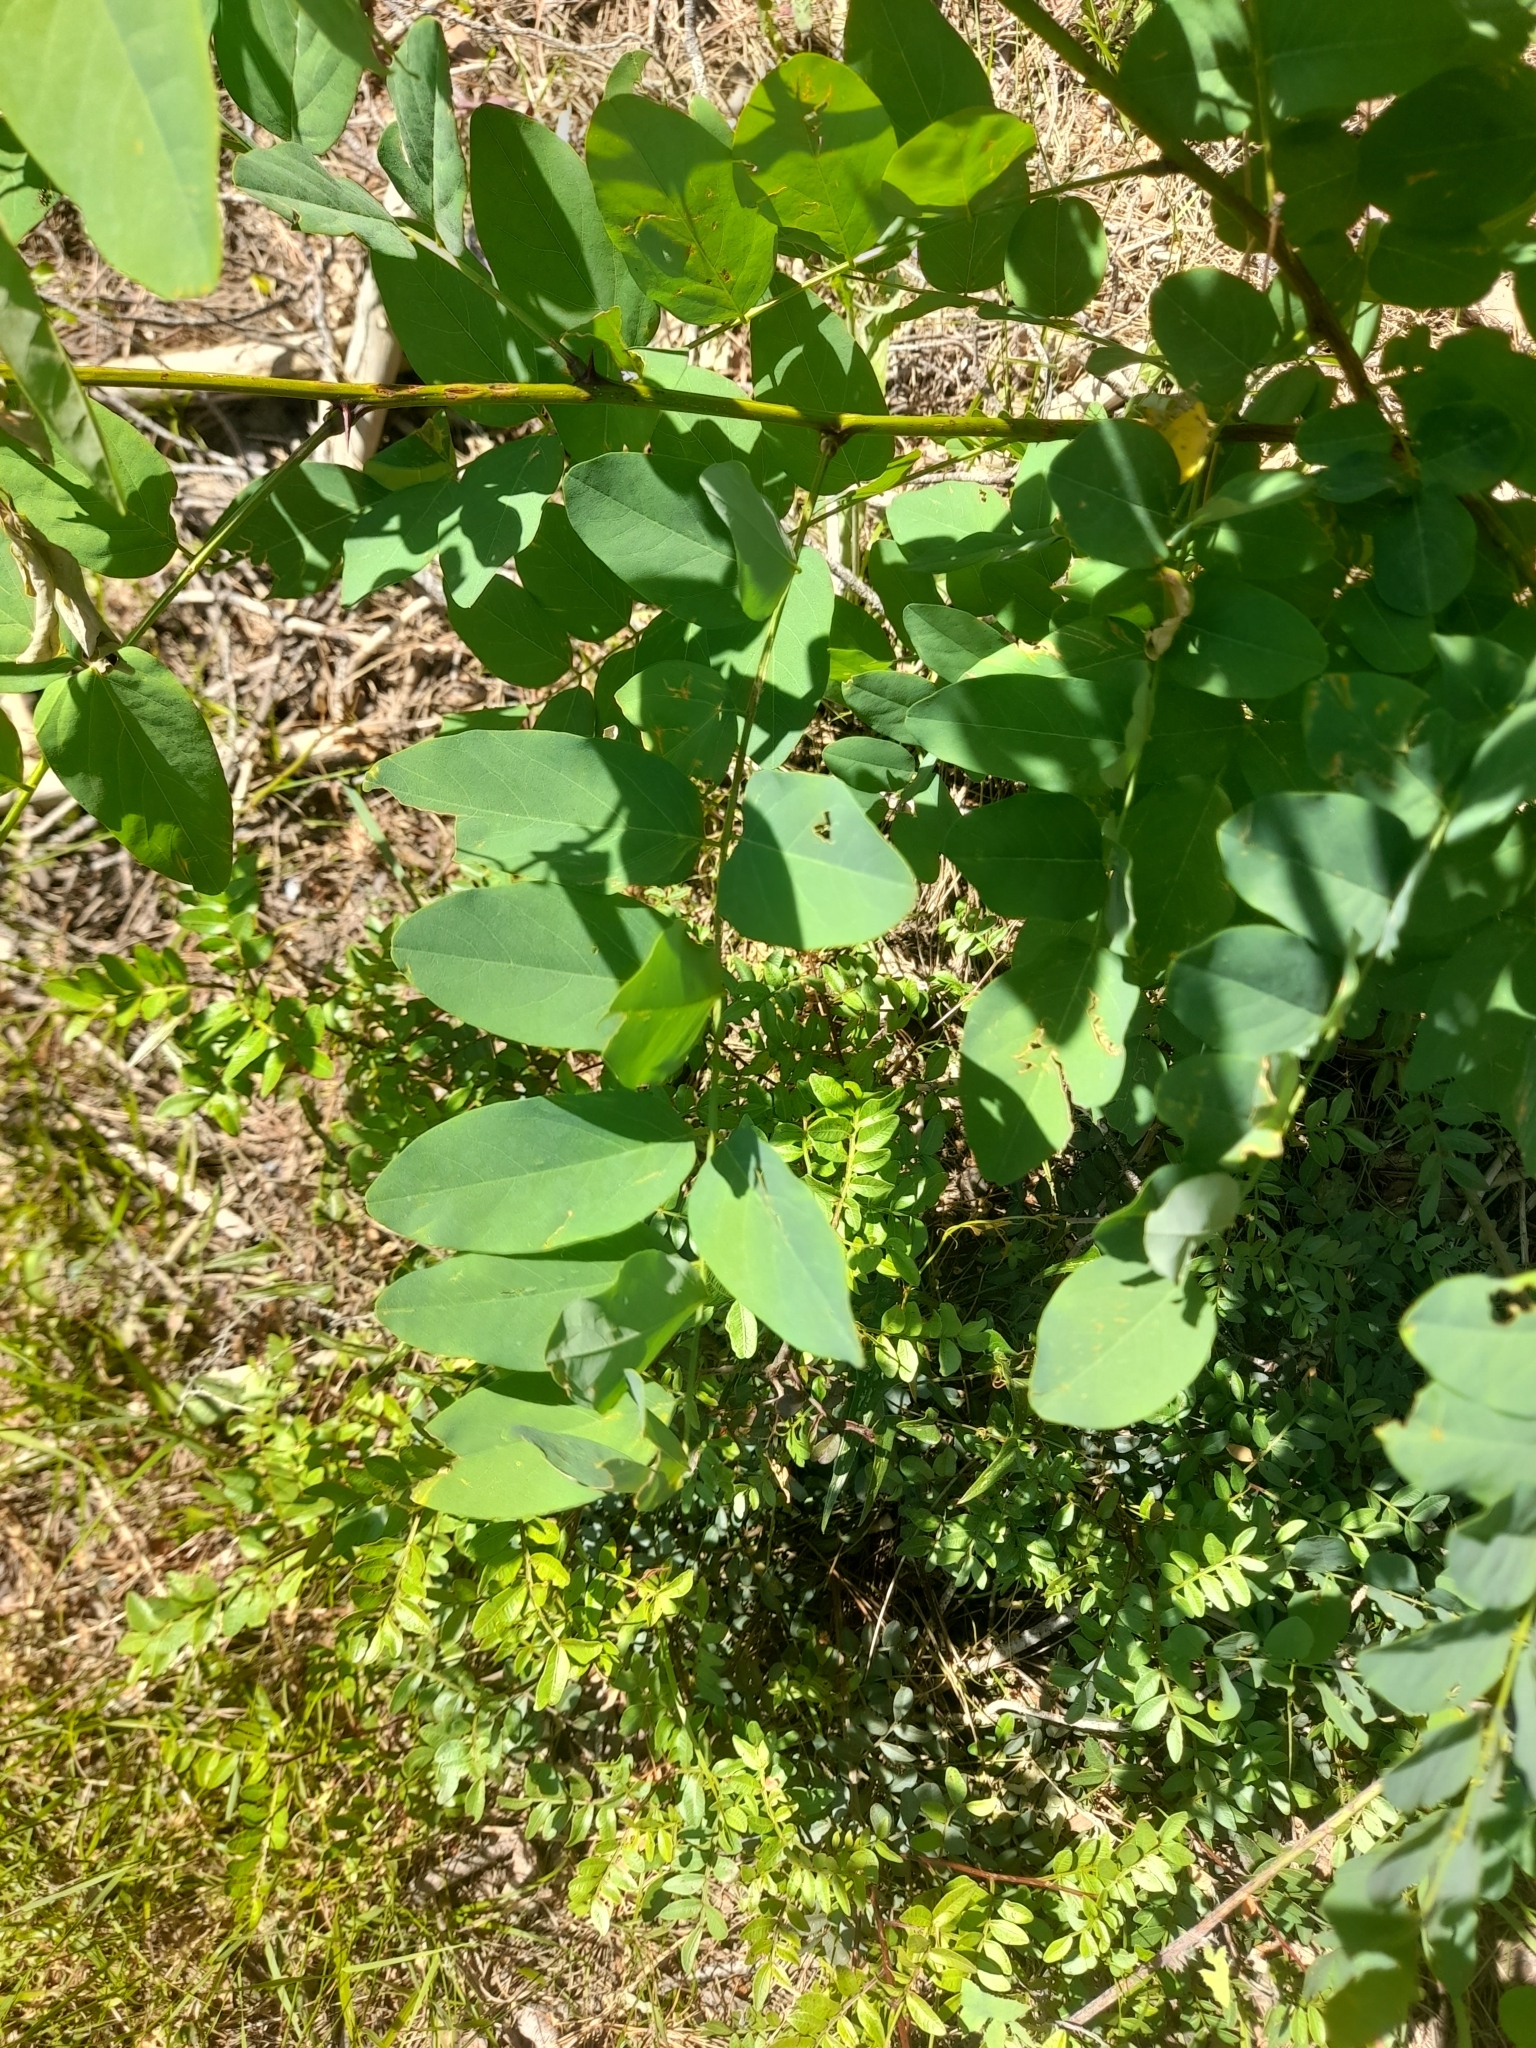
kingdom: Plantae
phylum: Tracheophyta
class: Magnoliopsida
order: Fabales
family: Fabaceae
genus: Robinia
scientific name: Robinia pseudoacacia
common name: Black locust
